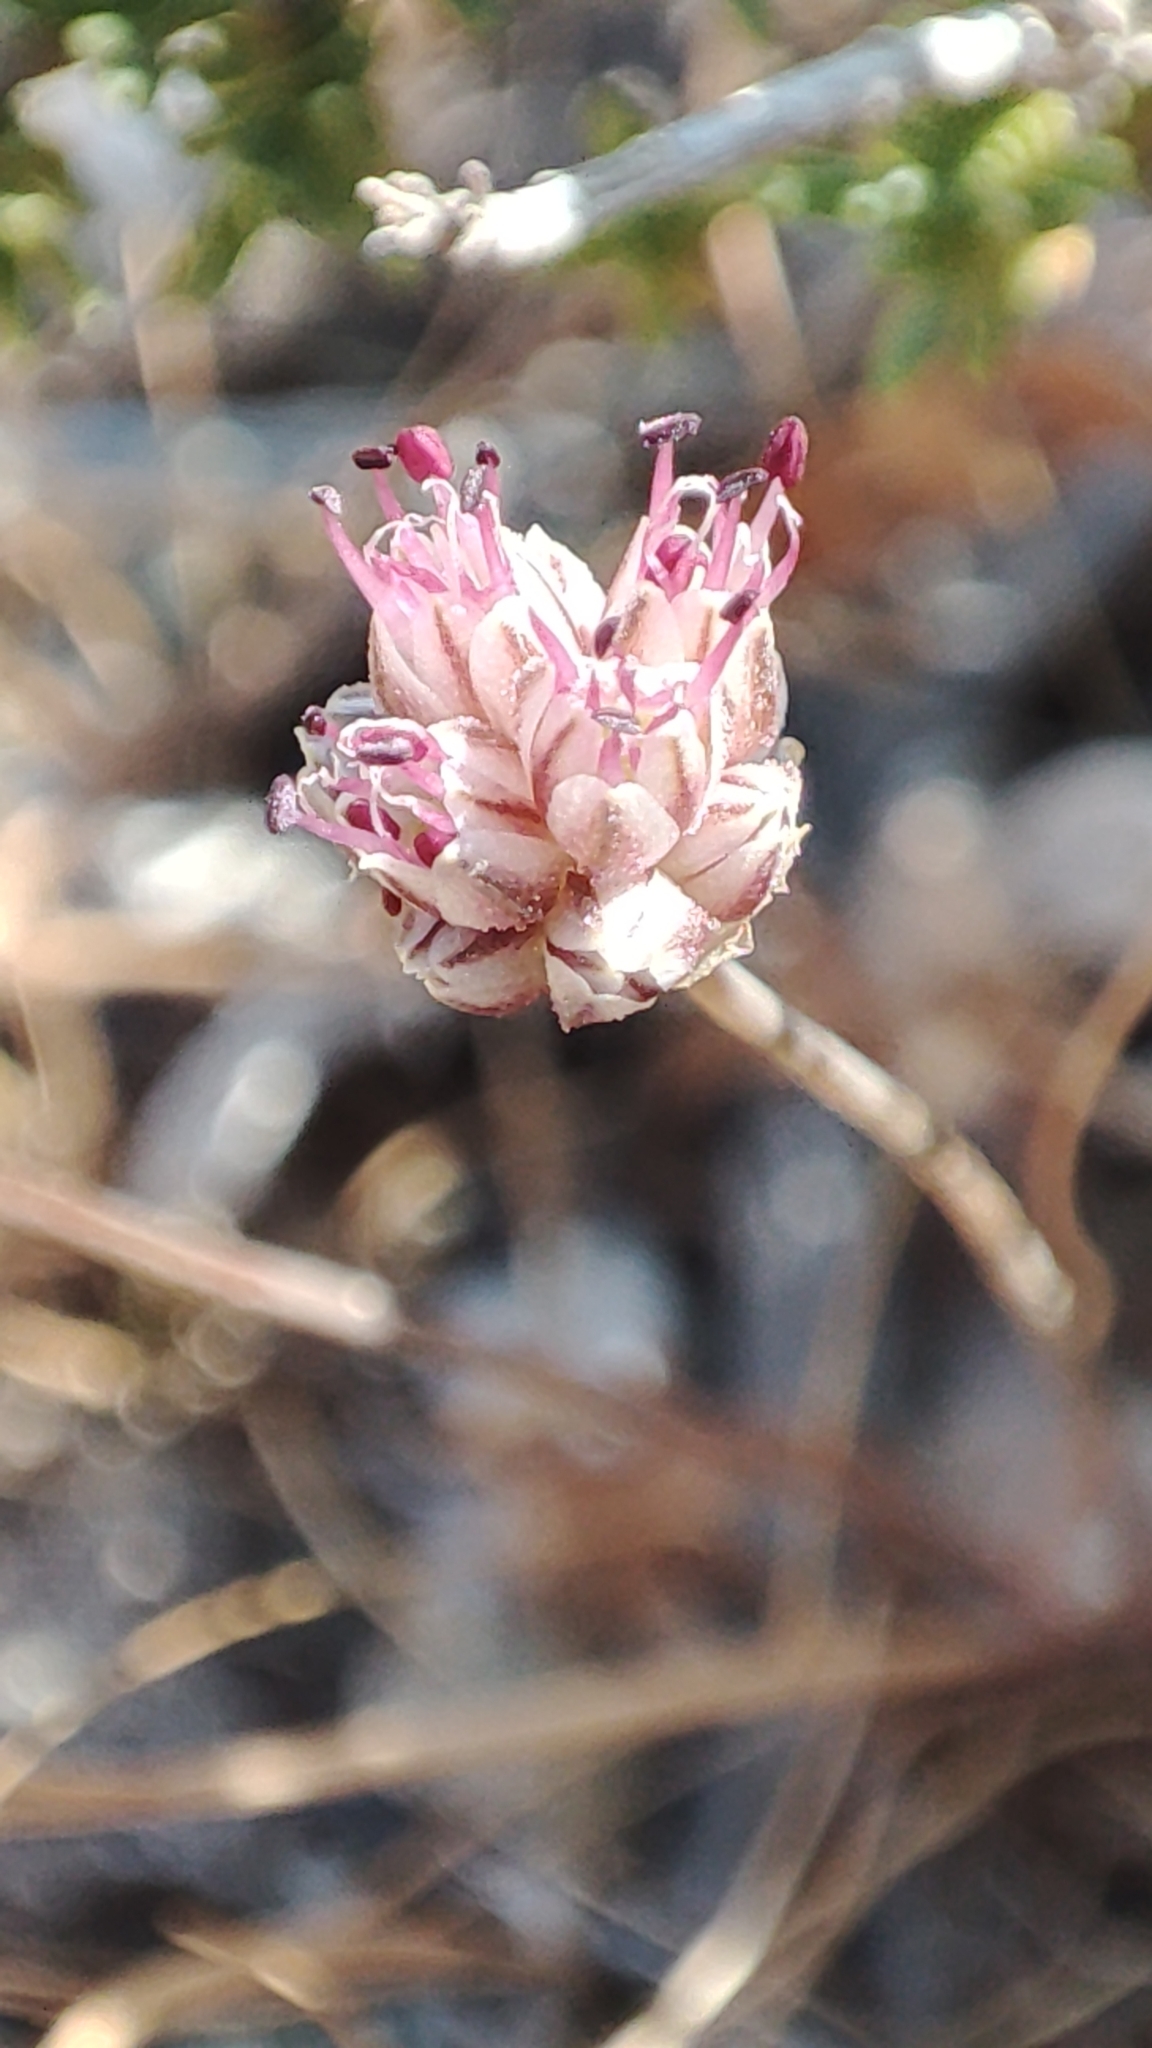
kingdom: Plantae
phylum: Tracheophyta
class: Liliopsida
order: Asparagales
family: Amaryllidaceae
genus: Allium
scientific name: Allium rubrovittatum
